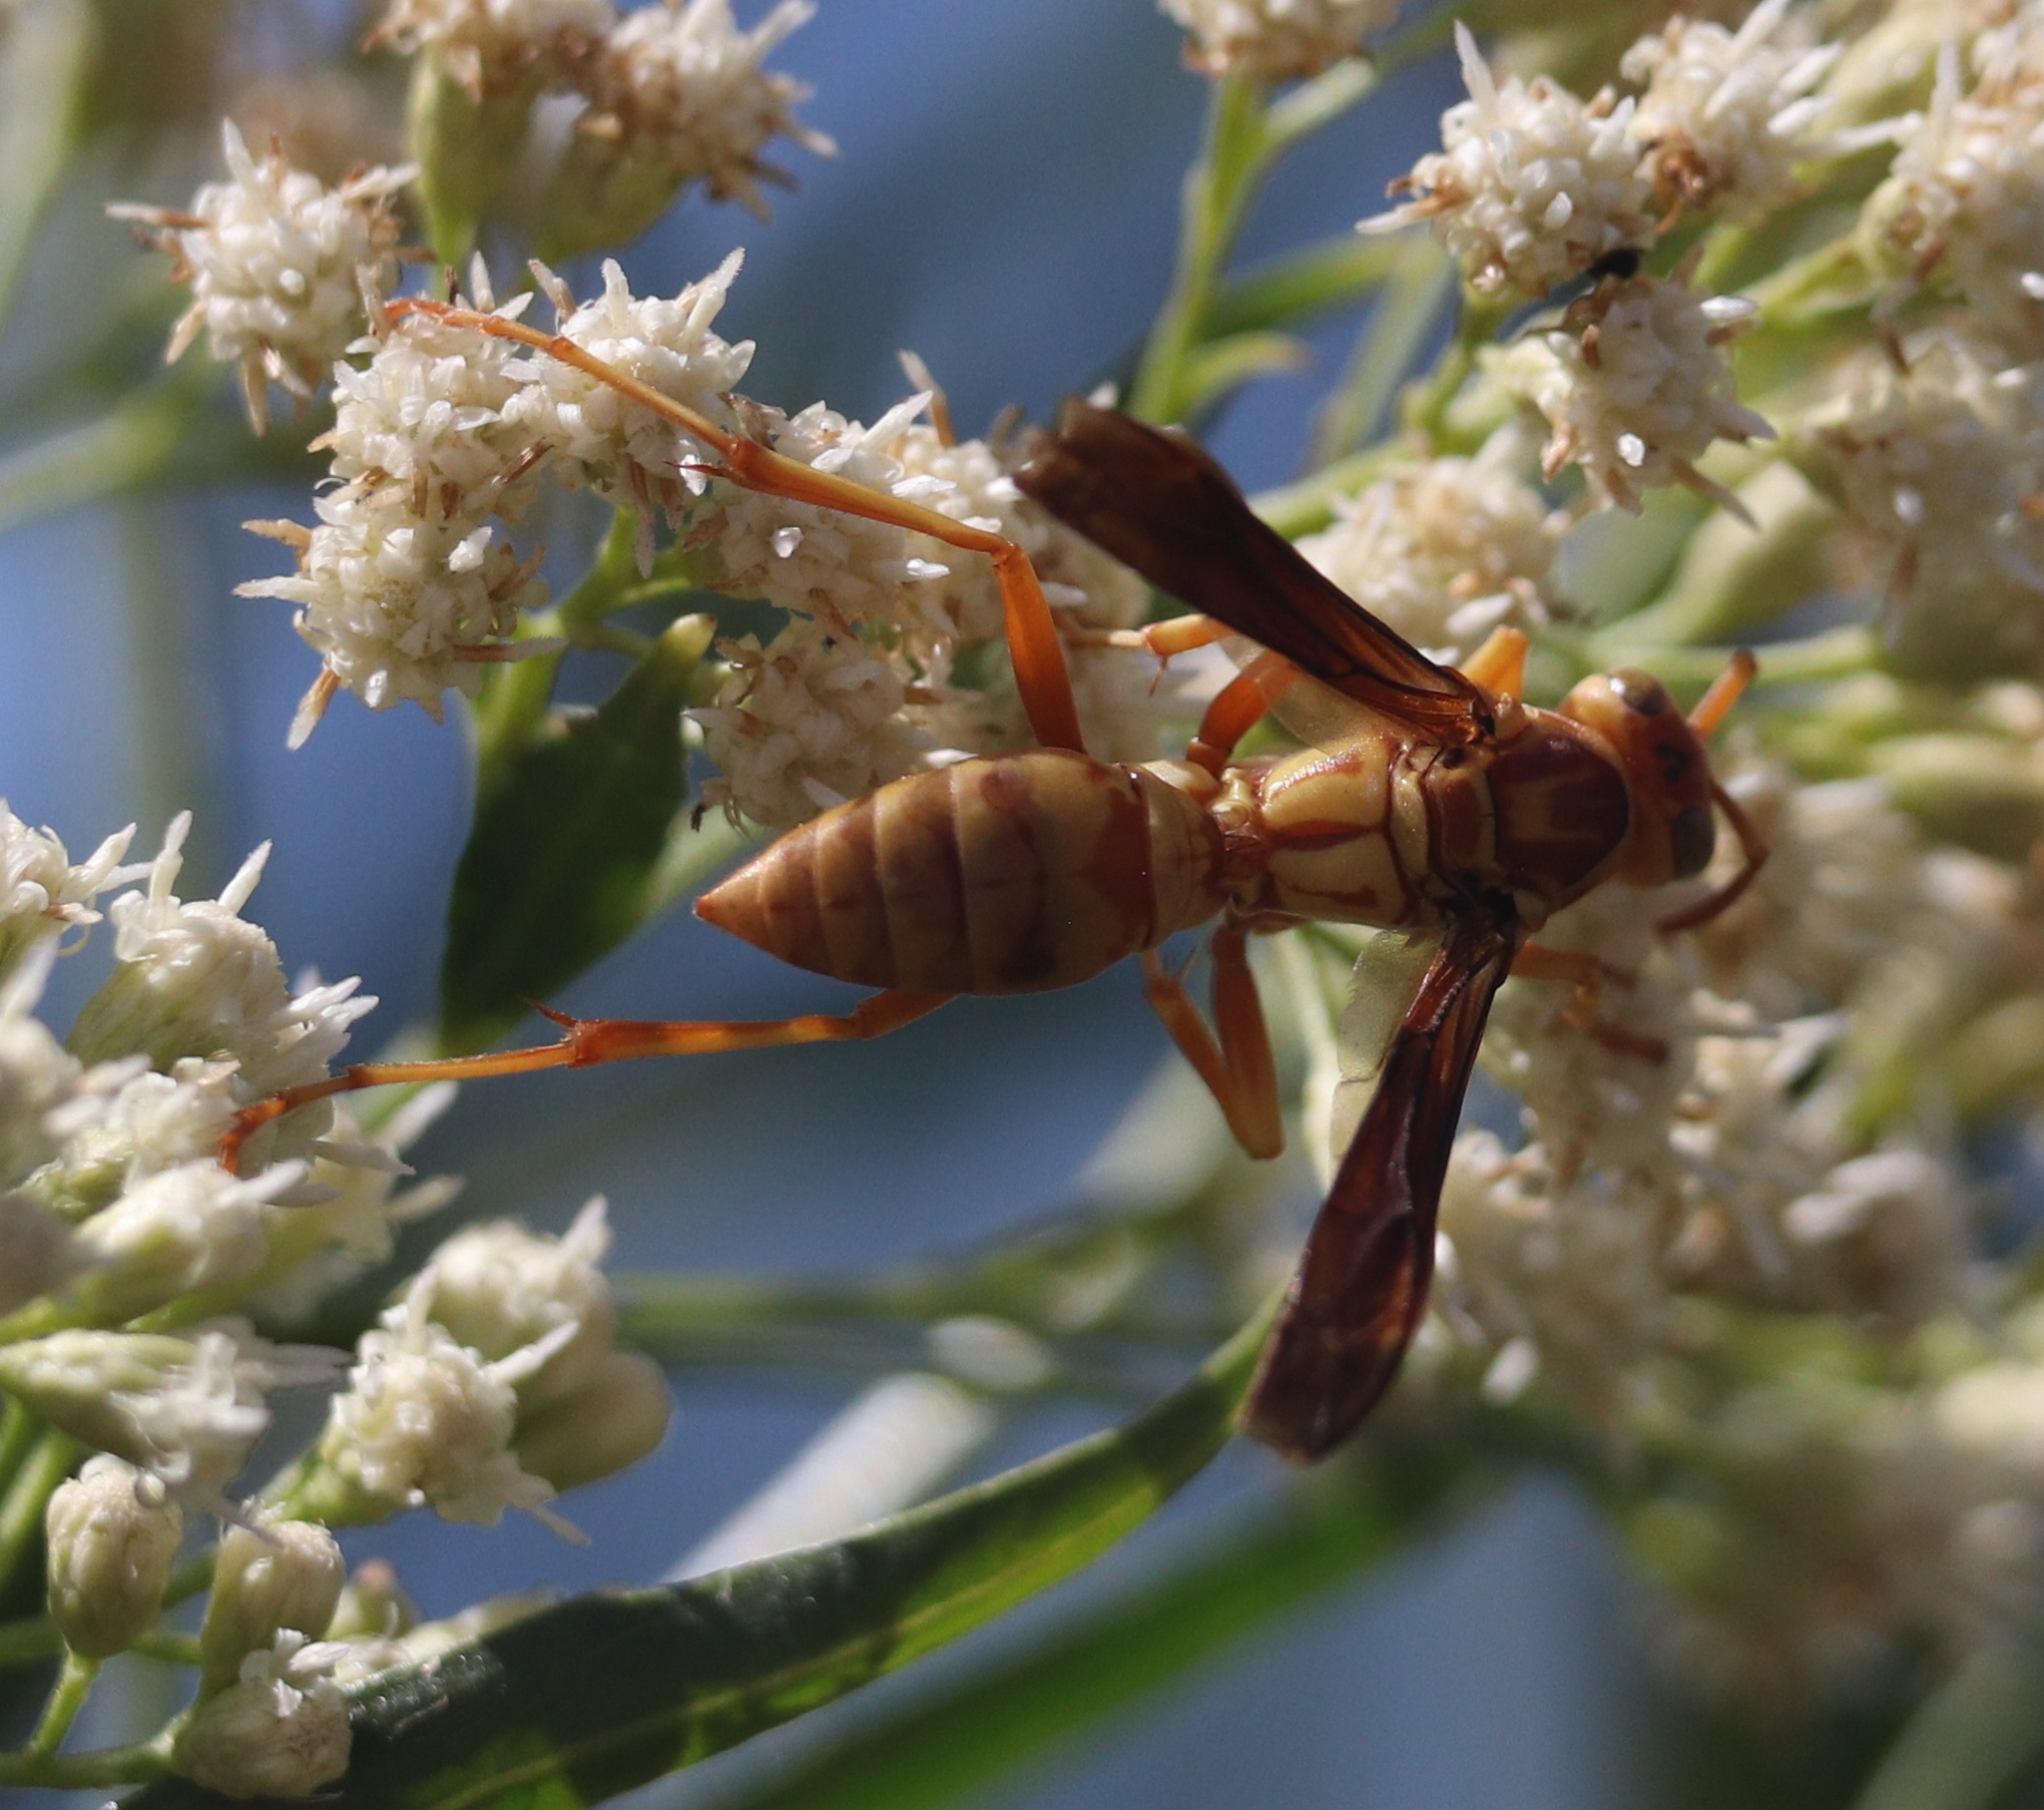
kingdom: Animalia
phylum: Arthropoda
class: Insecta
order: Hymenoptera
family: Eumenidae
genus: Polistes
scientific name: Polistes aurifer
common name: Paper wasp
